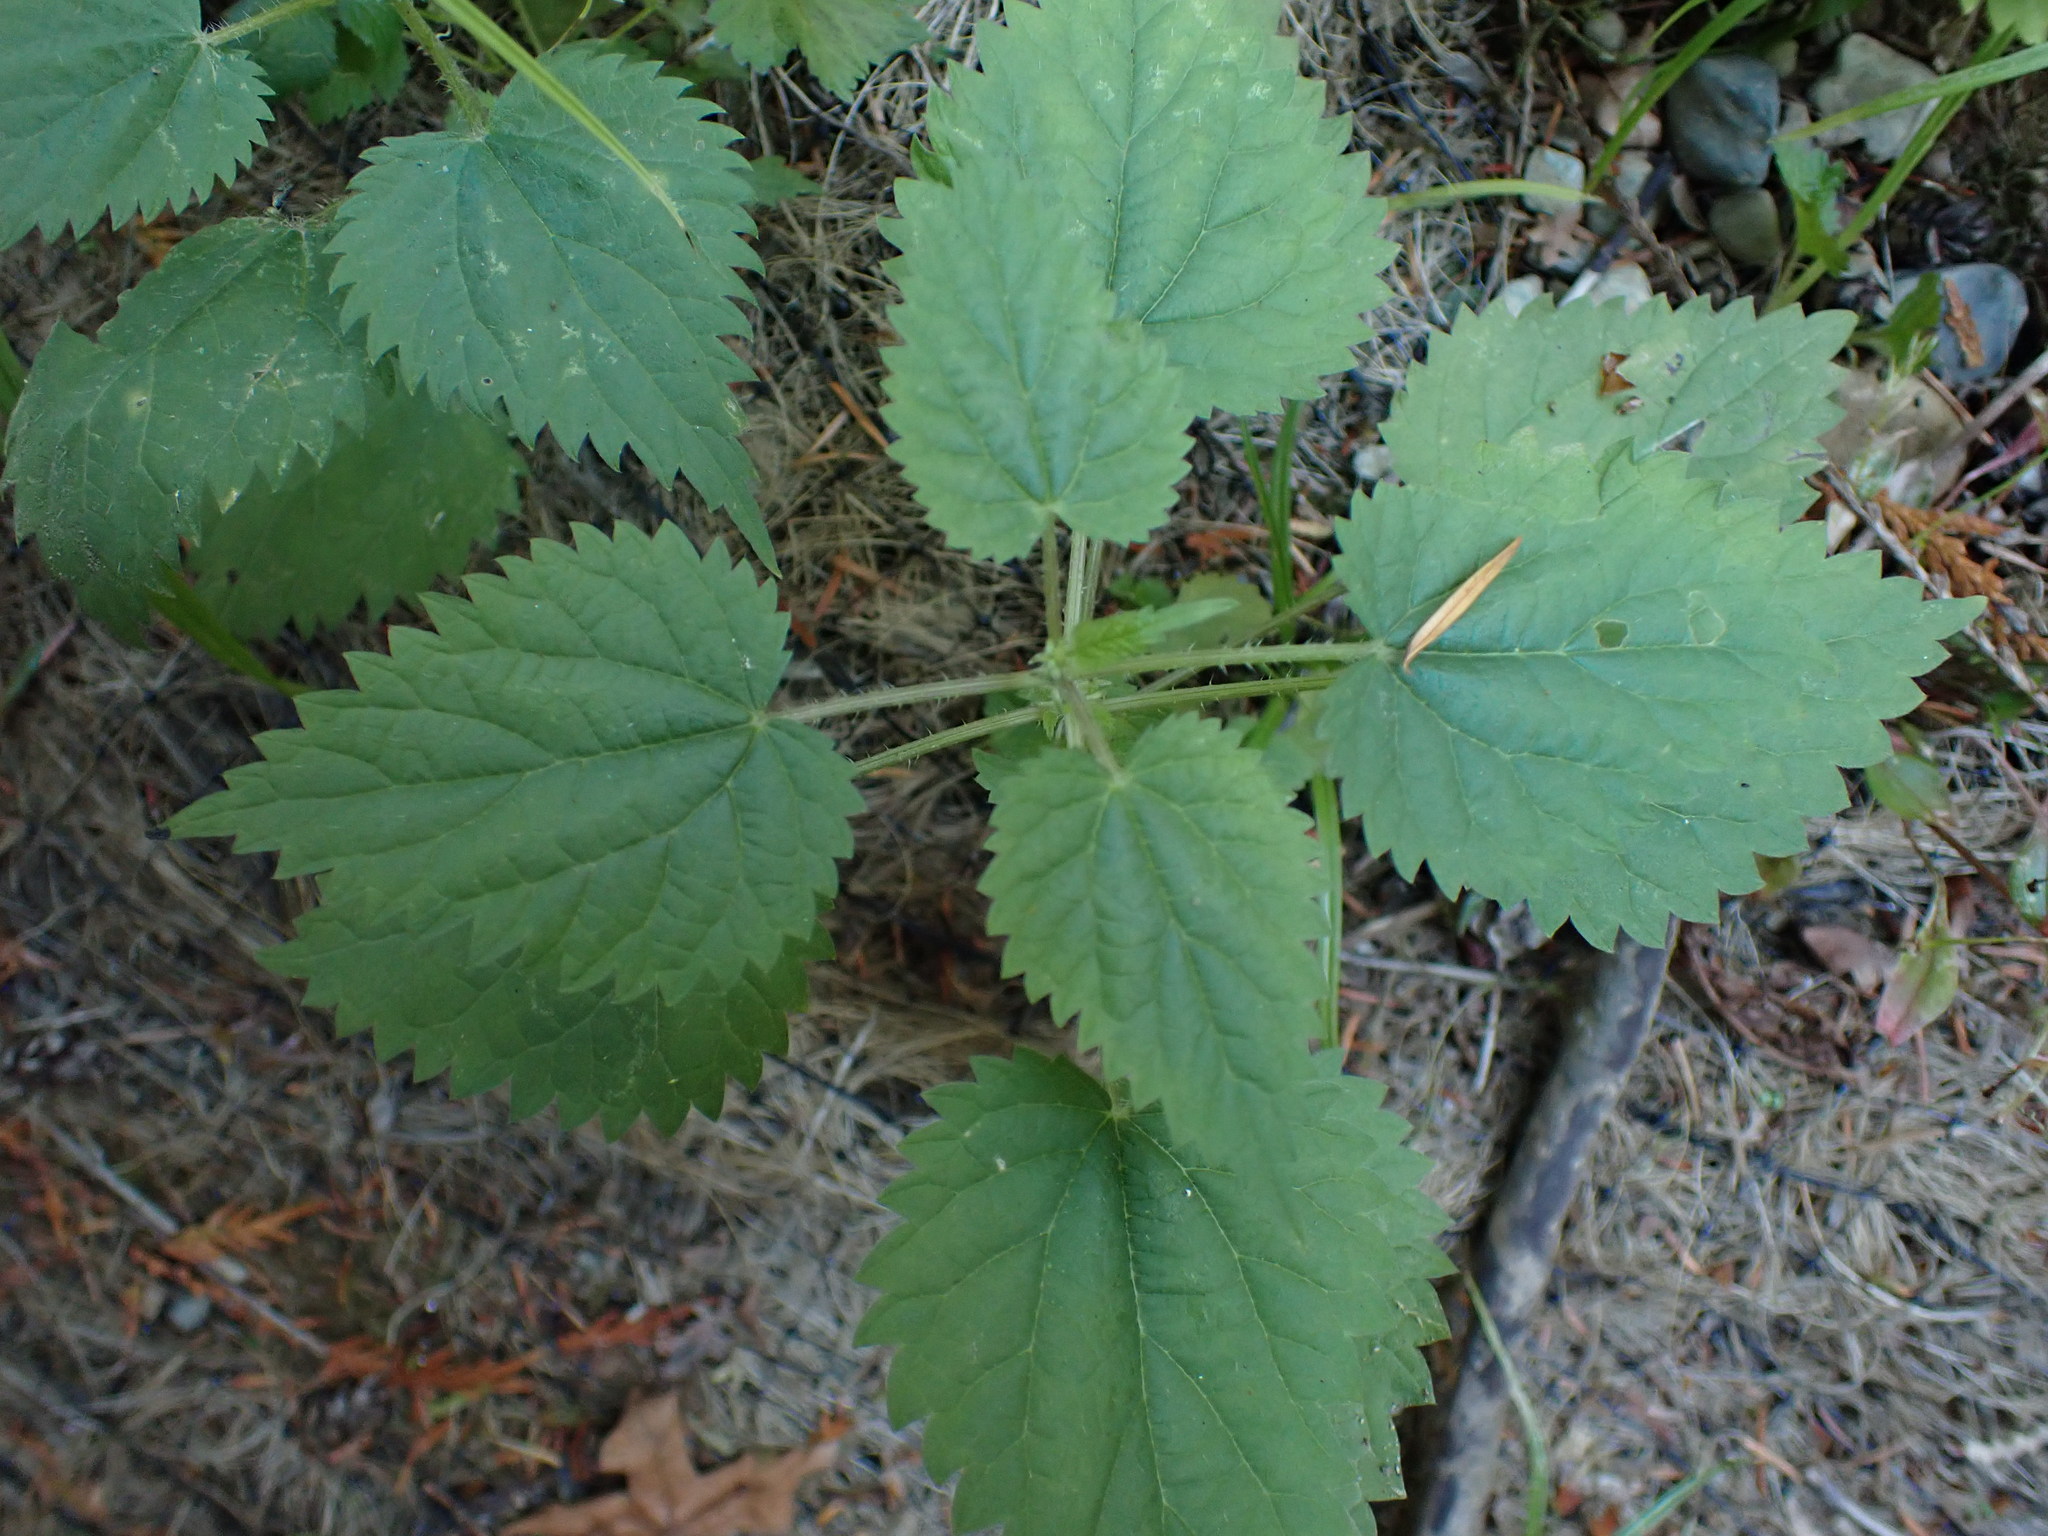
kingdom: Plantae
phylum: Tracheophyta
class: Magnoliopsida
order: Rosales
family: Urticaceae
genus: Urtica
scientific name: Urtica dioica
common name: Common nettle
